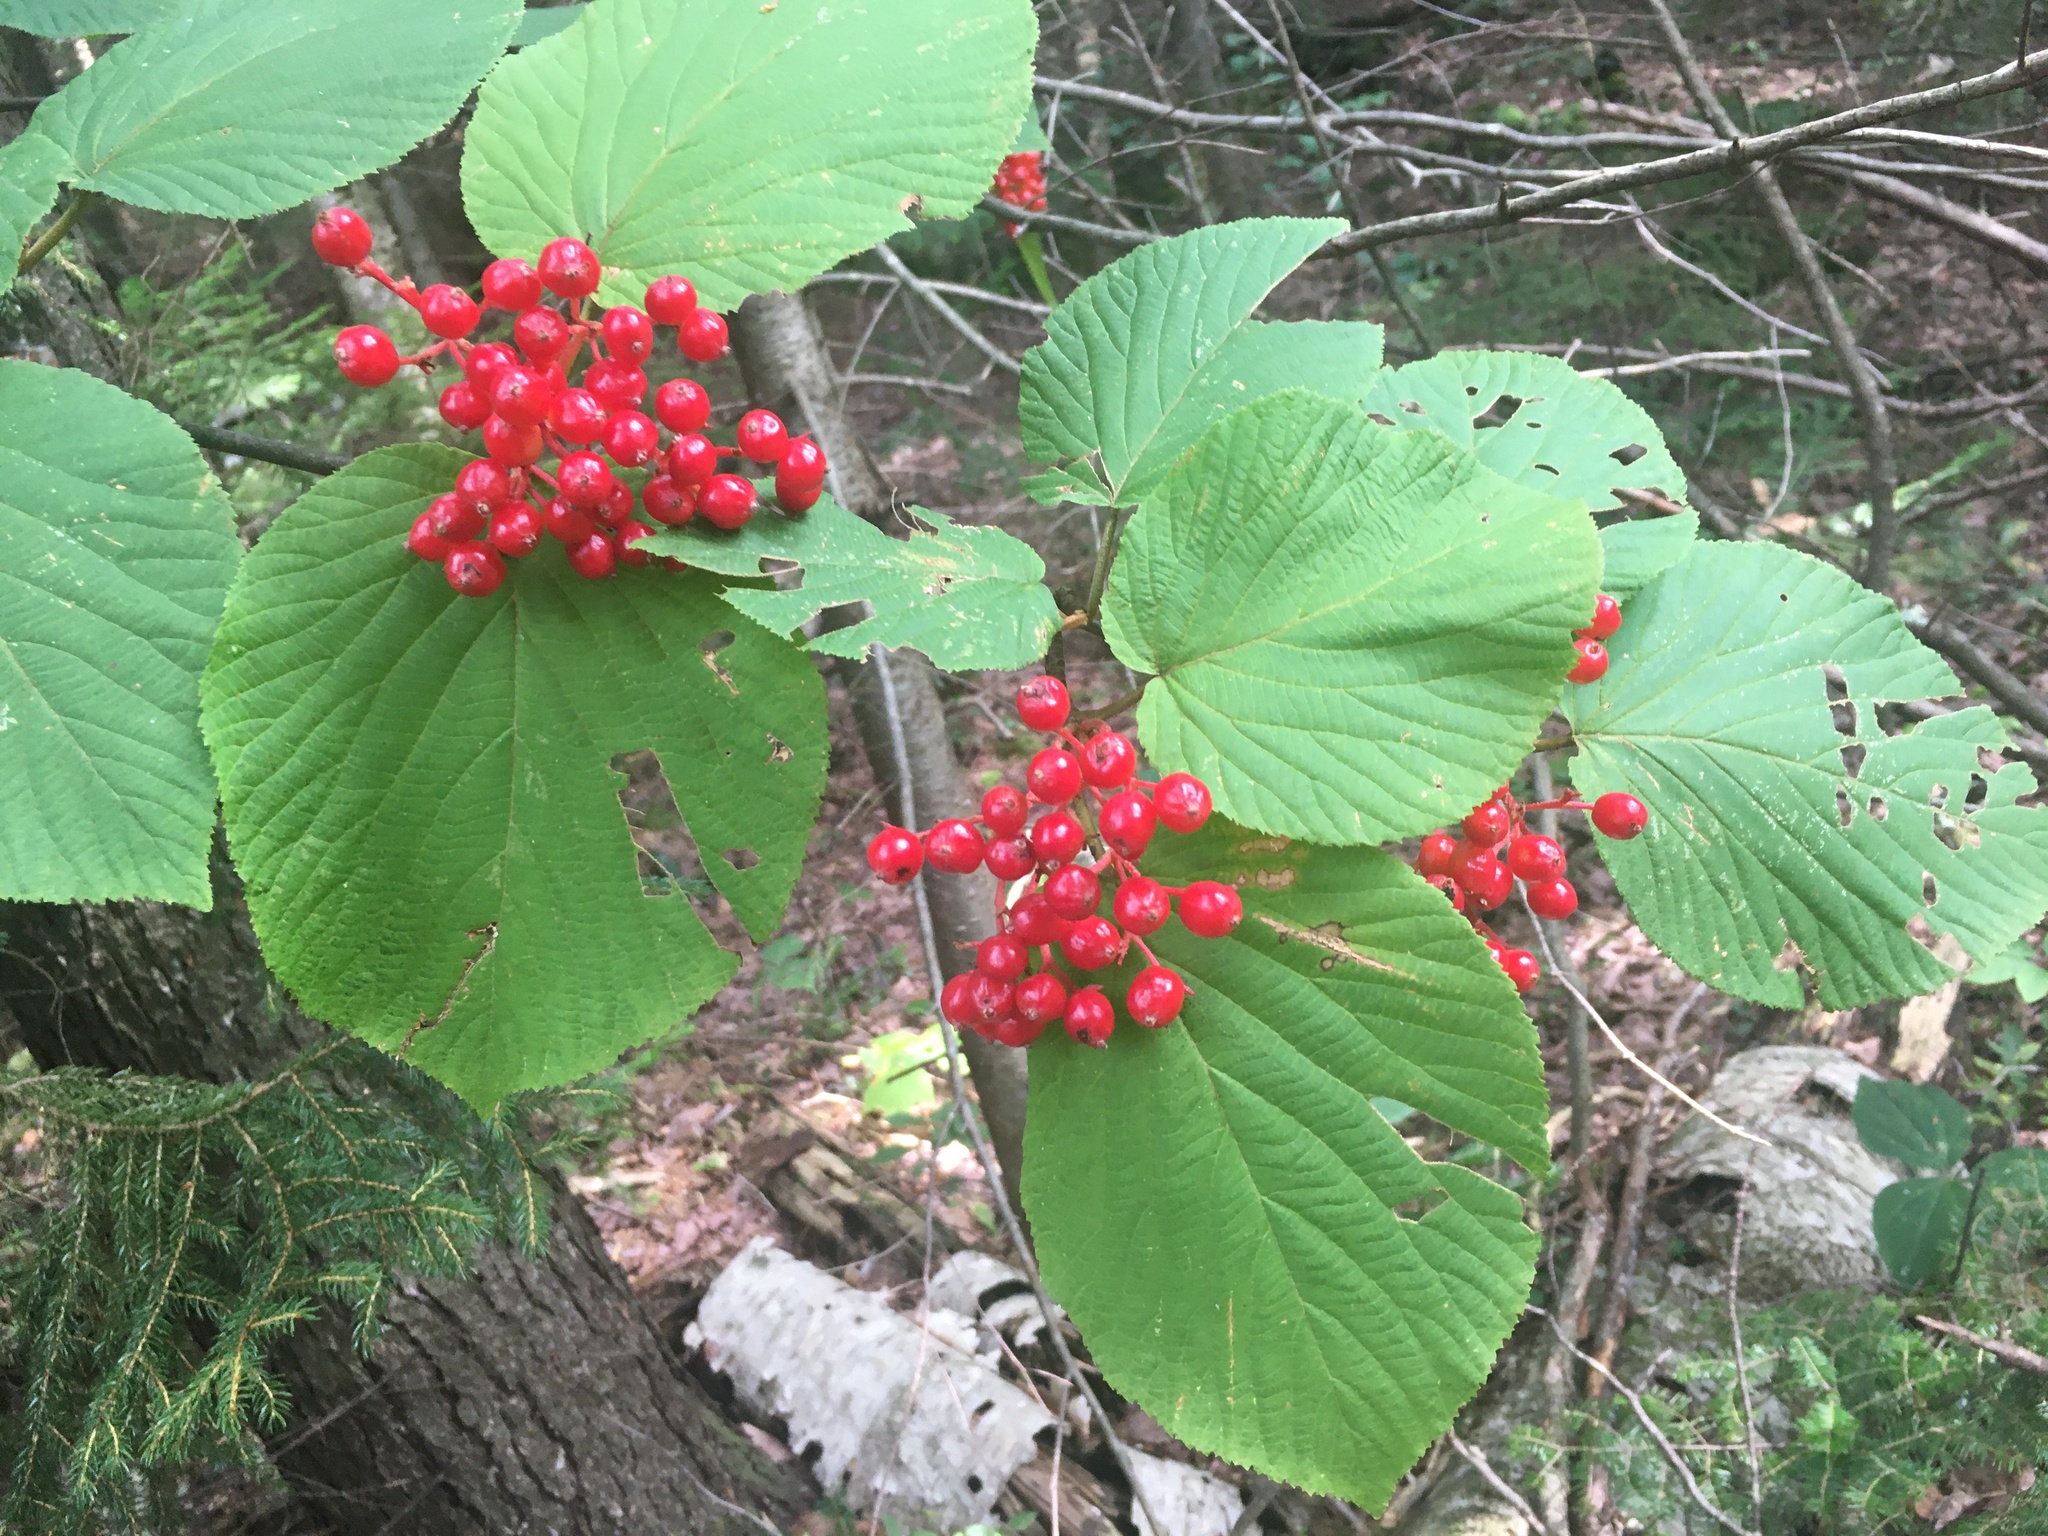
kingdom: Plantae
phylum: Tracheophyta
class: Magnoliopsida
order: Dipsacales
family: Viburnaceae
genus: Viburnum
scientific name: Viburnum lantanoides
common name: Hobblebush
